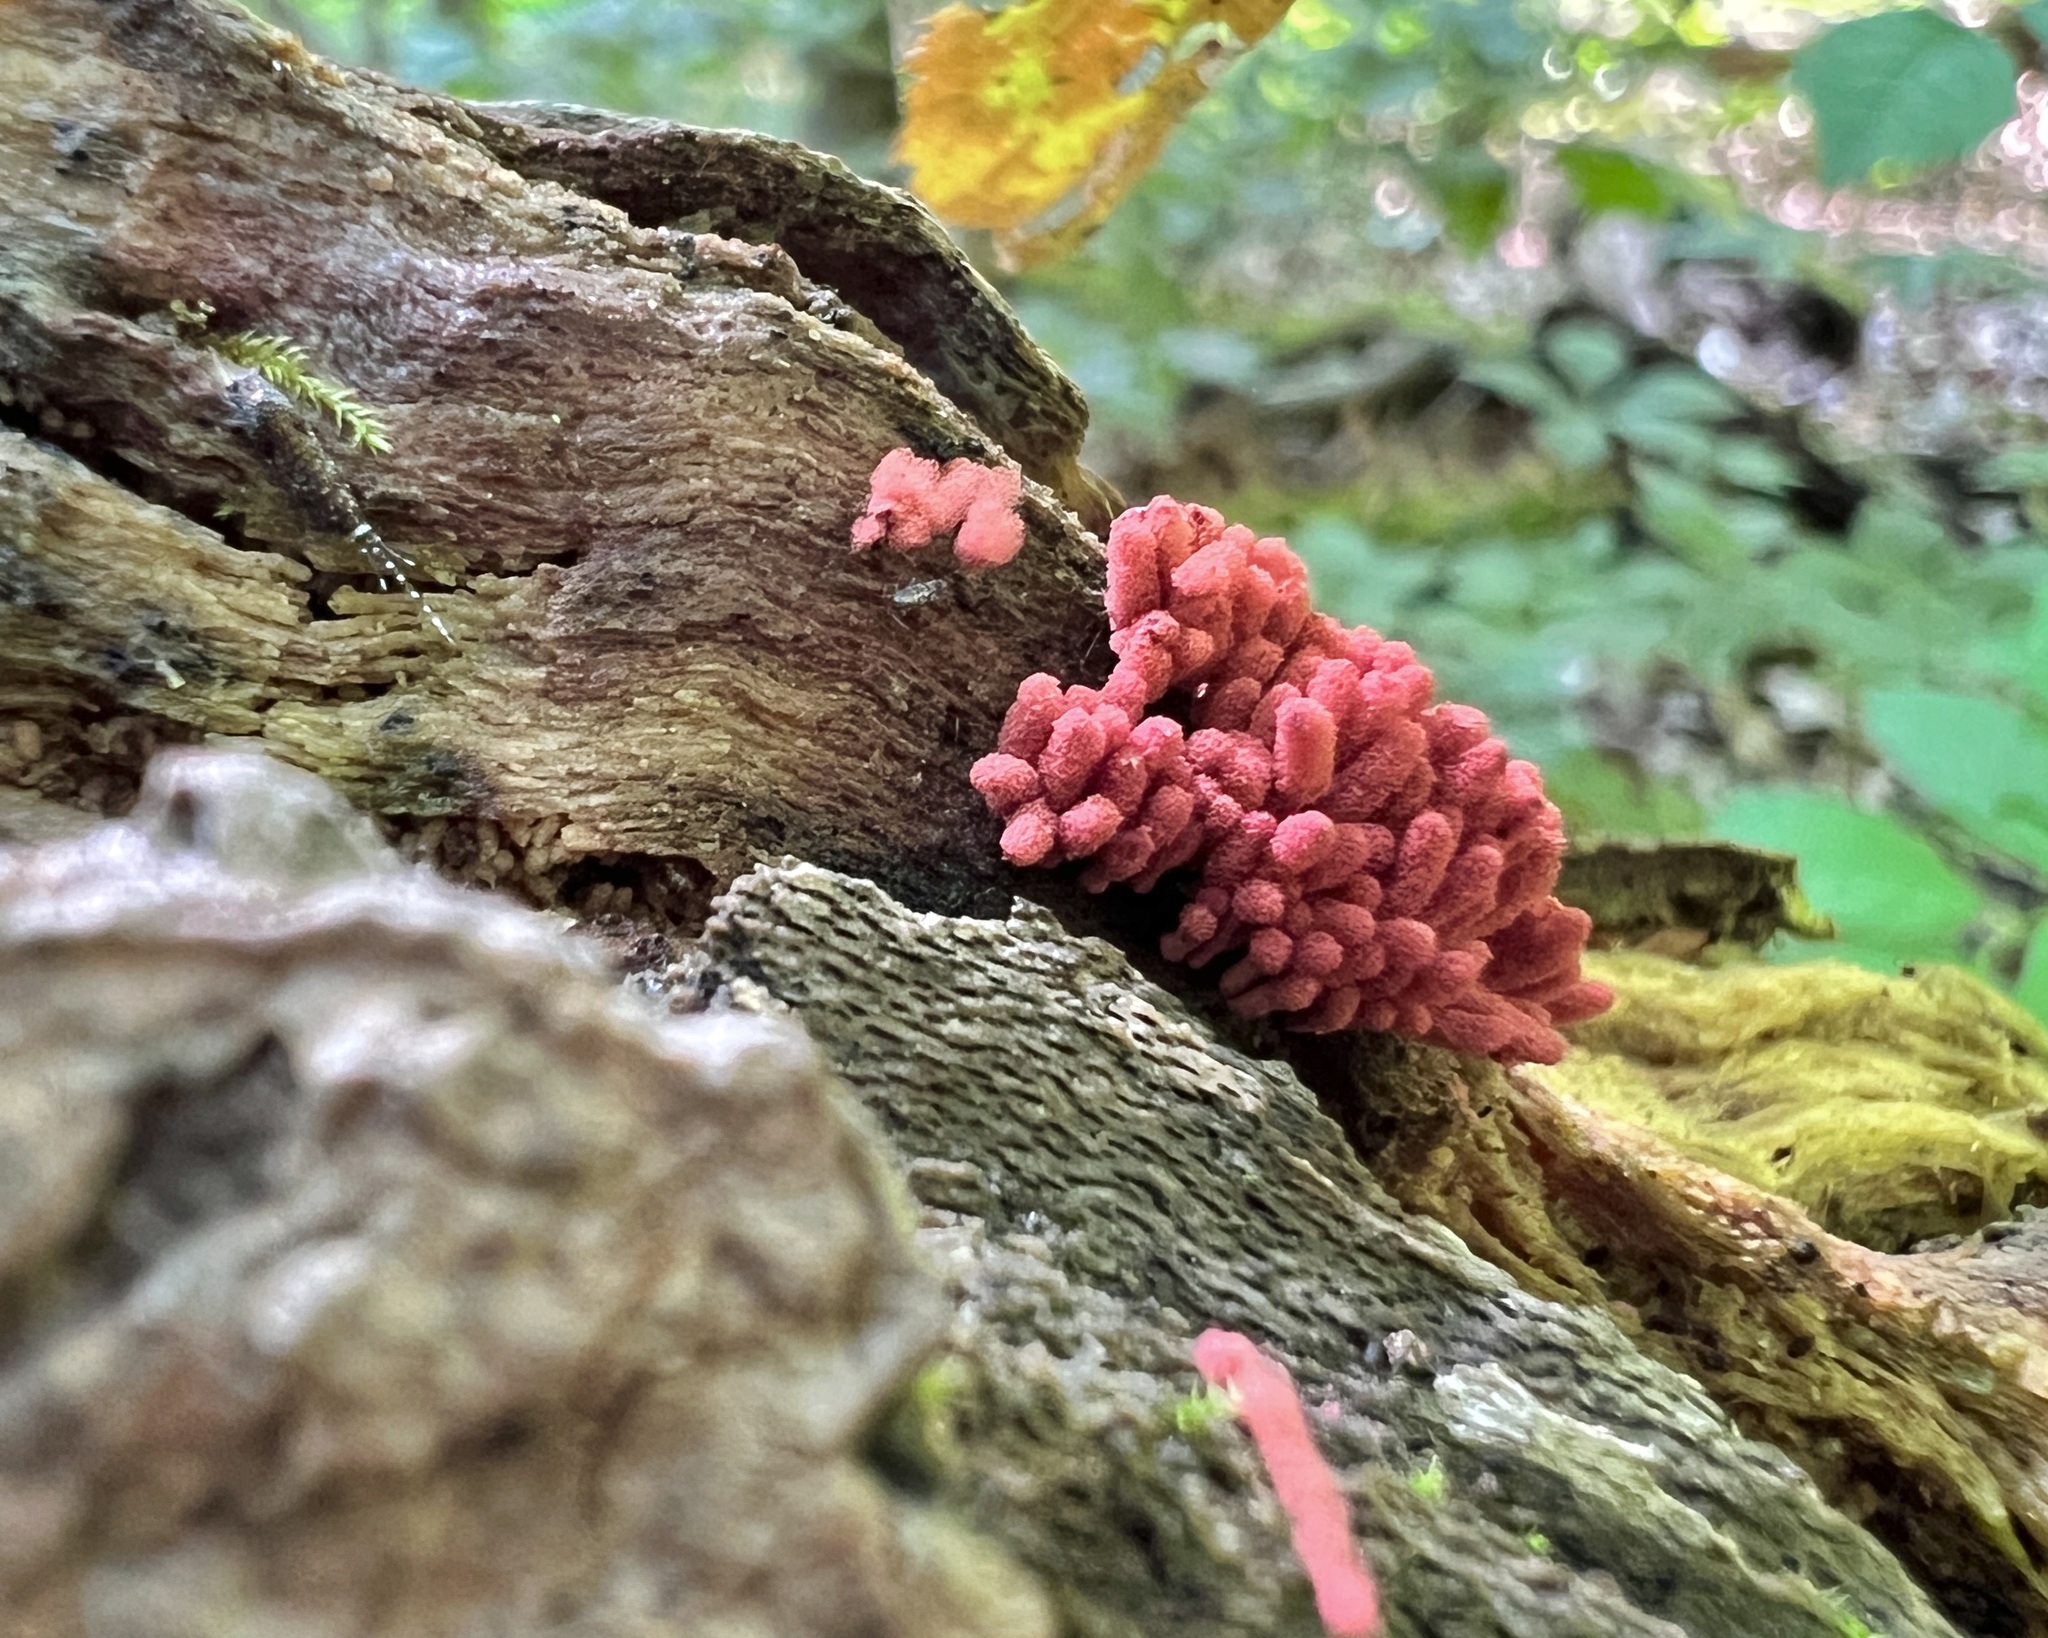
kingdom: Protozoa
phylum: Mycetozoa
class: Myxomycetes
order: Trichiales
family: Arcyriaceae
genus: Arcyria
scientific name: Arcyria denudata
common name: Carnival candy slime mold
